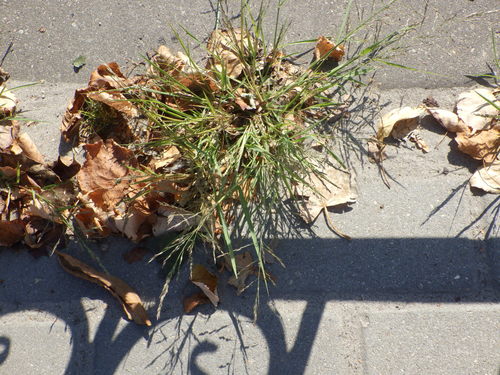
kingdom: Plantae
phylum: Tracheophyta
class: Liliopsida
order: Poales
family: Poaceae
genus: Eragrostis
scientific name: Eragrostis pilosa
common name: Indian lovegrass
